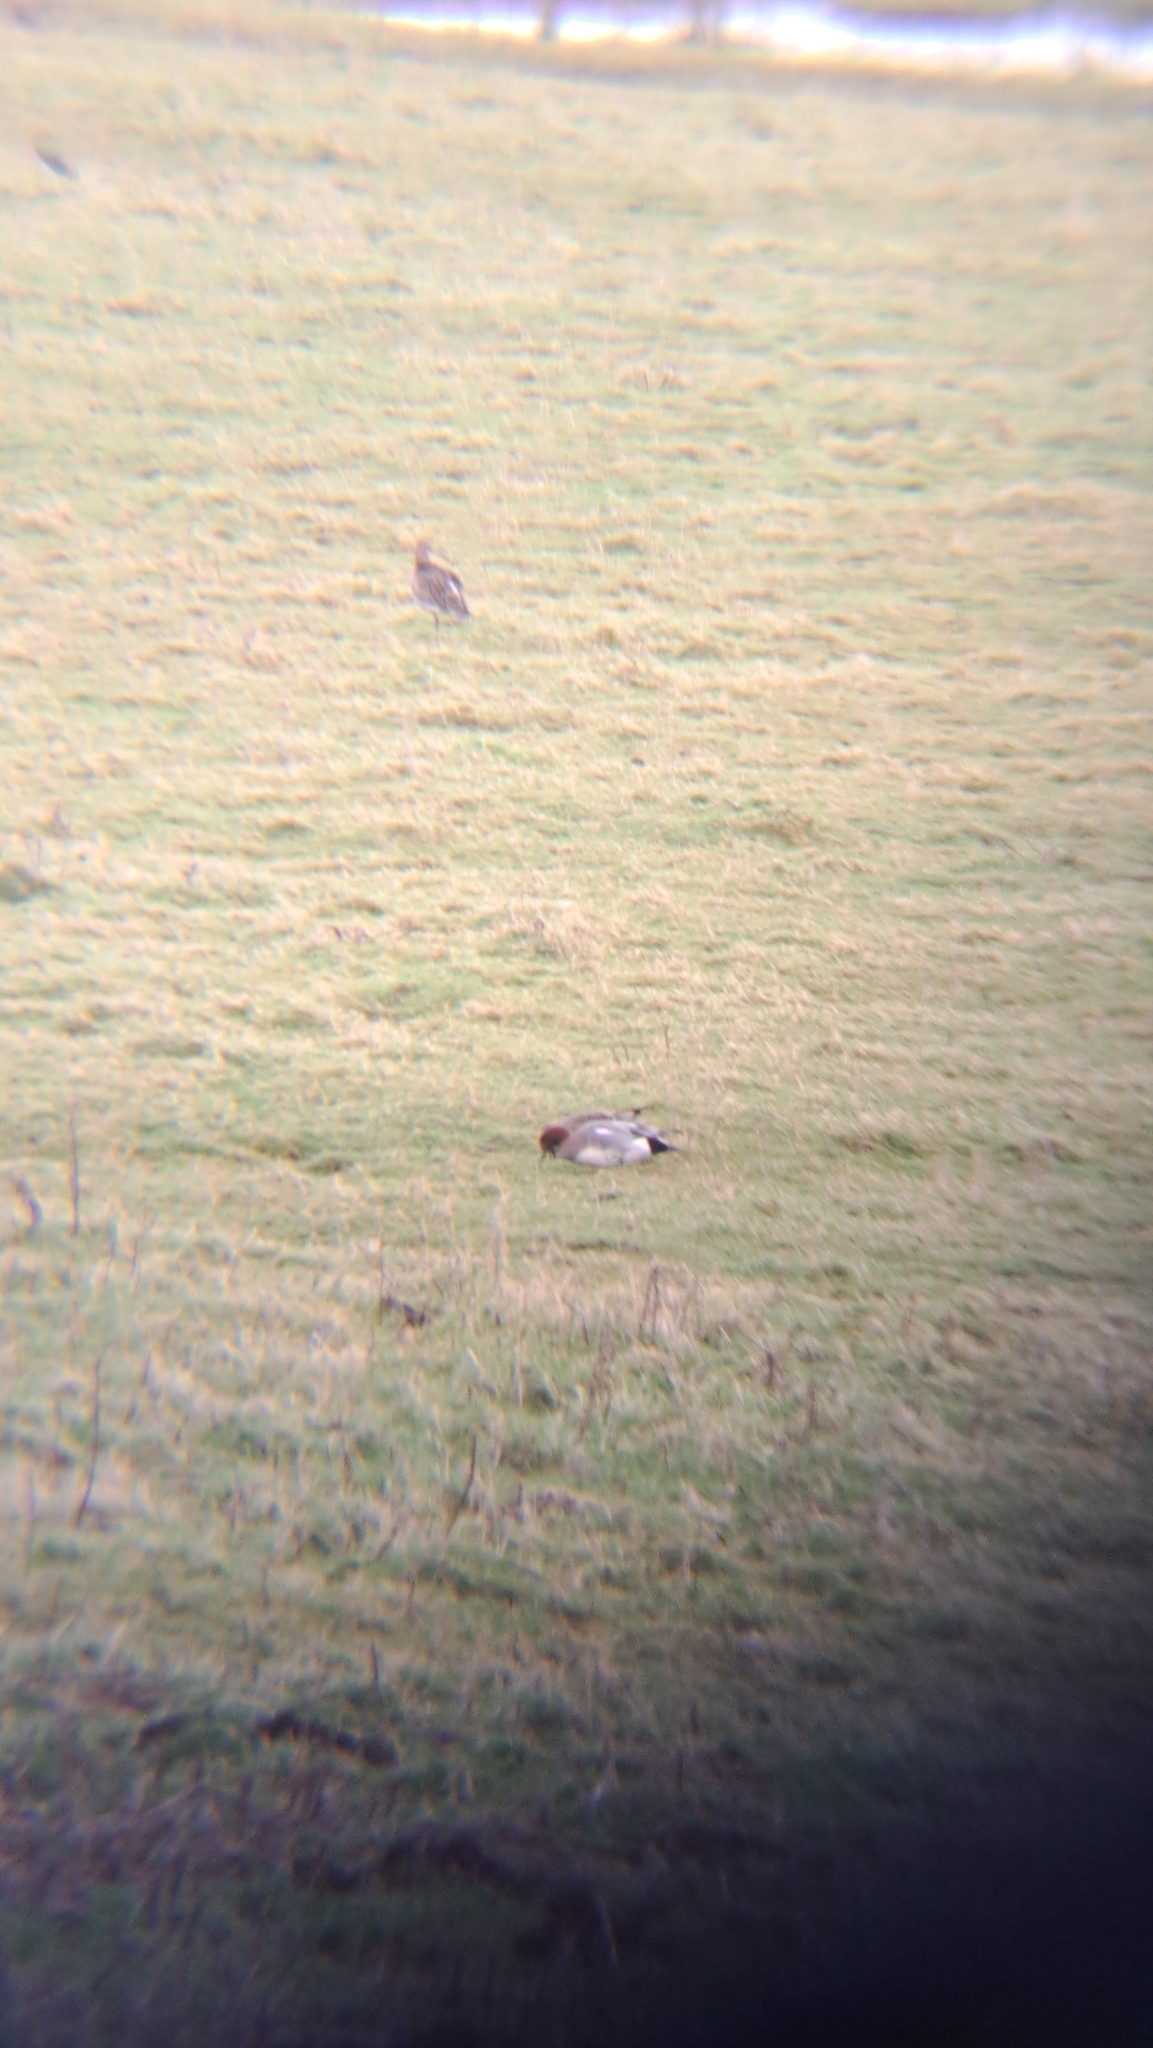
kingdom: Animalia
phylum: Chordata
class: Aves
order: Anseriformes
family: Anatidae
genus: Mareca
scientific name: Mareca penelope
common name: Eurasian wigeon
